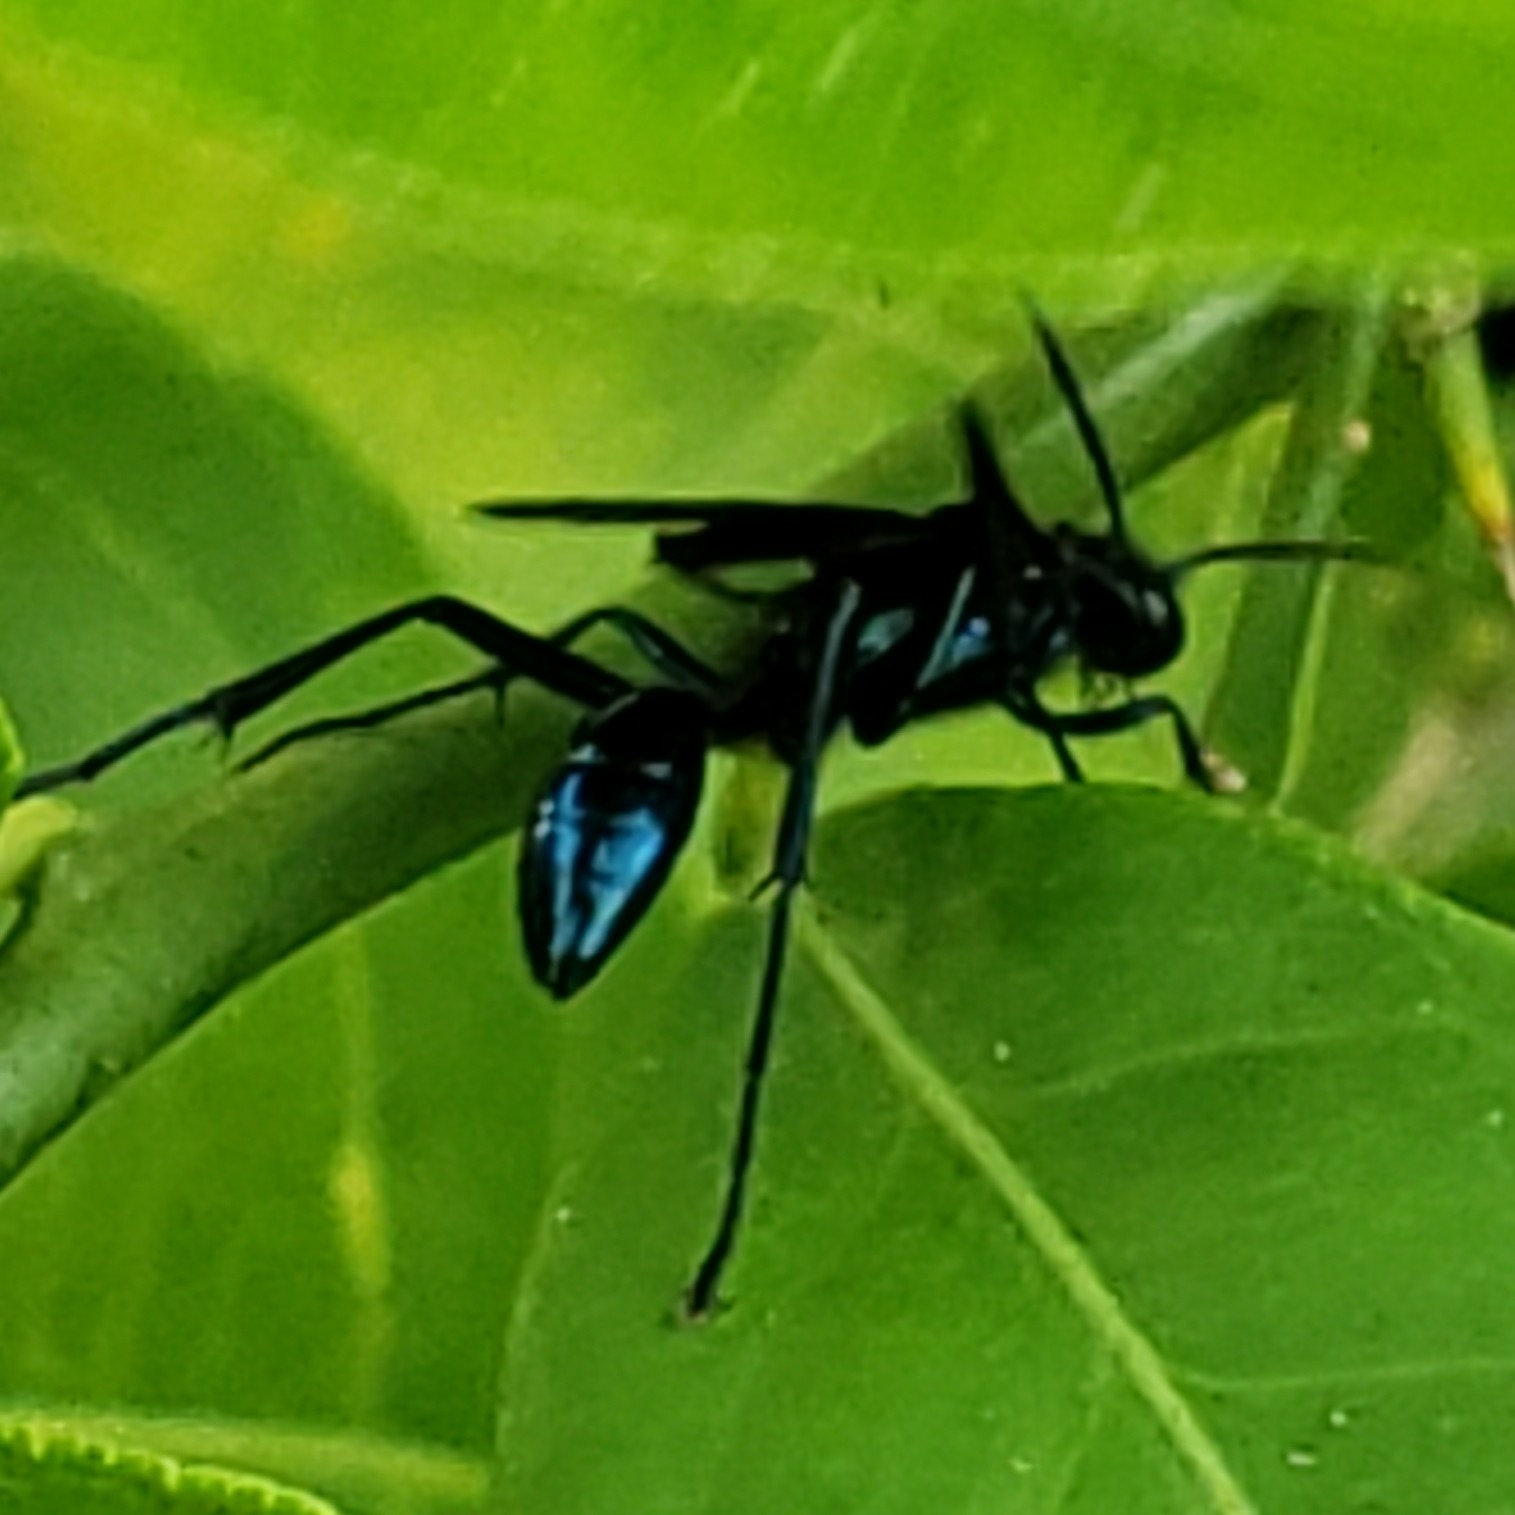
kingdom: Animalia
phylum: Arthropoda
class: Insecta
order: Hymenoptera
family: Sphecidae
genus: Chalybion
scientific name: Chalybion californicum
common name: Mud dauber
